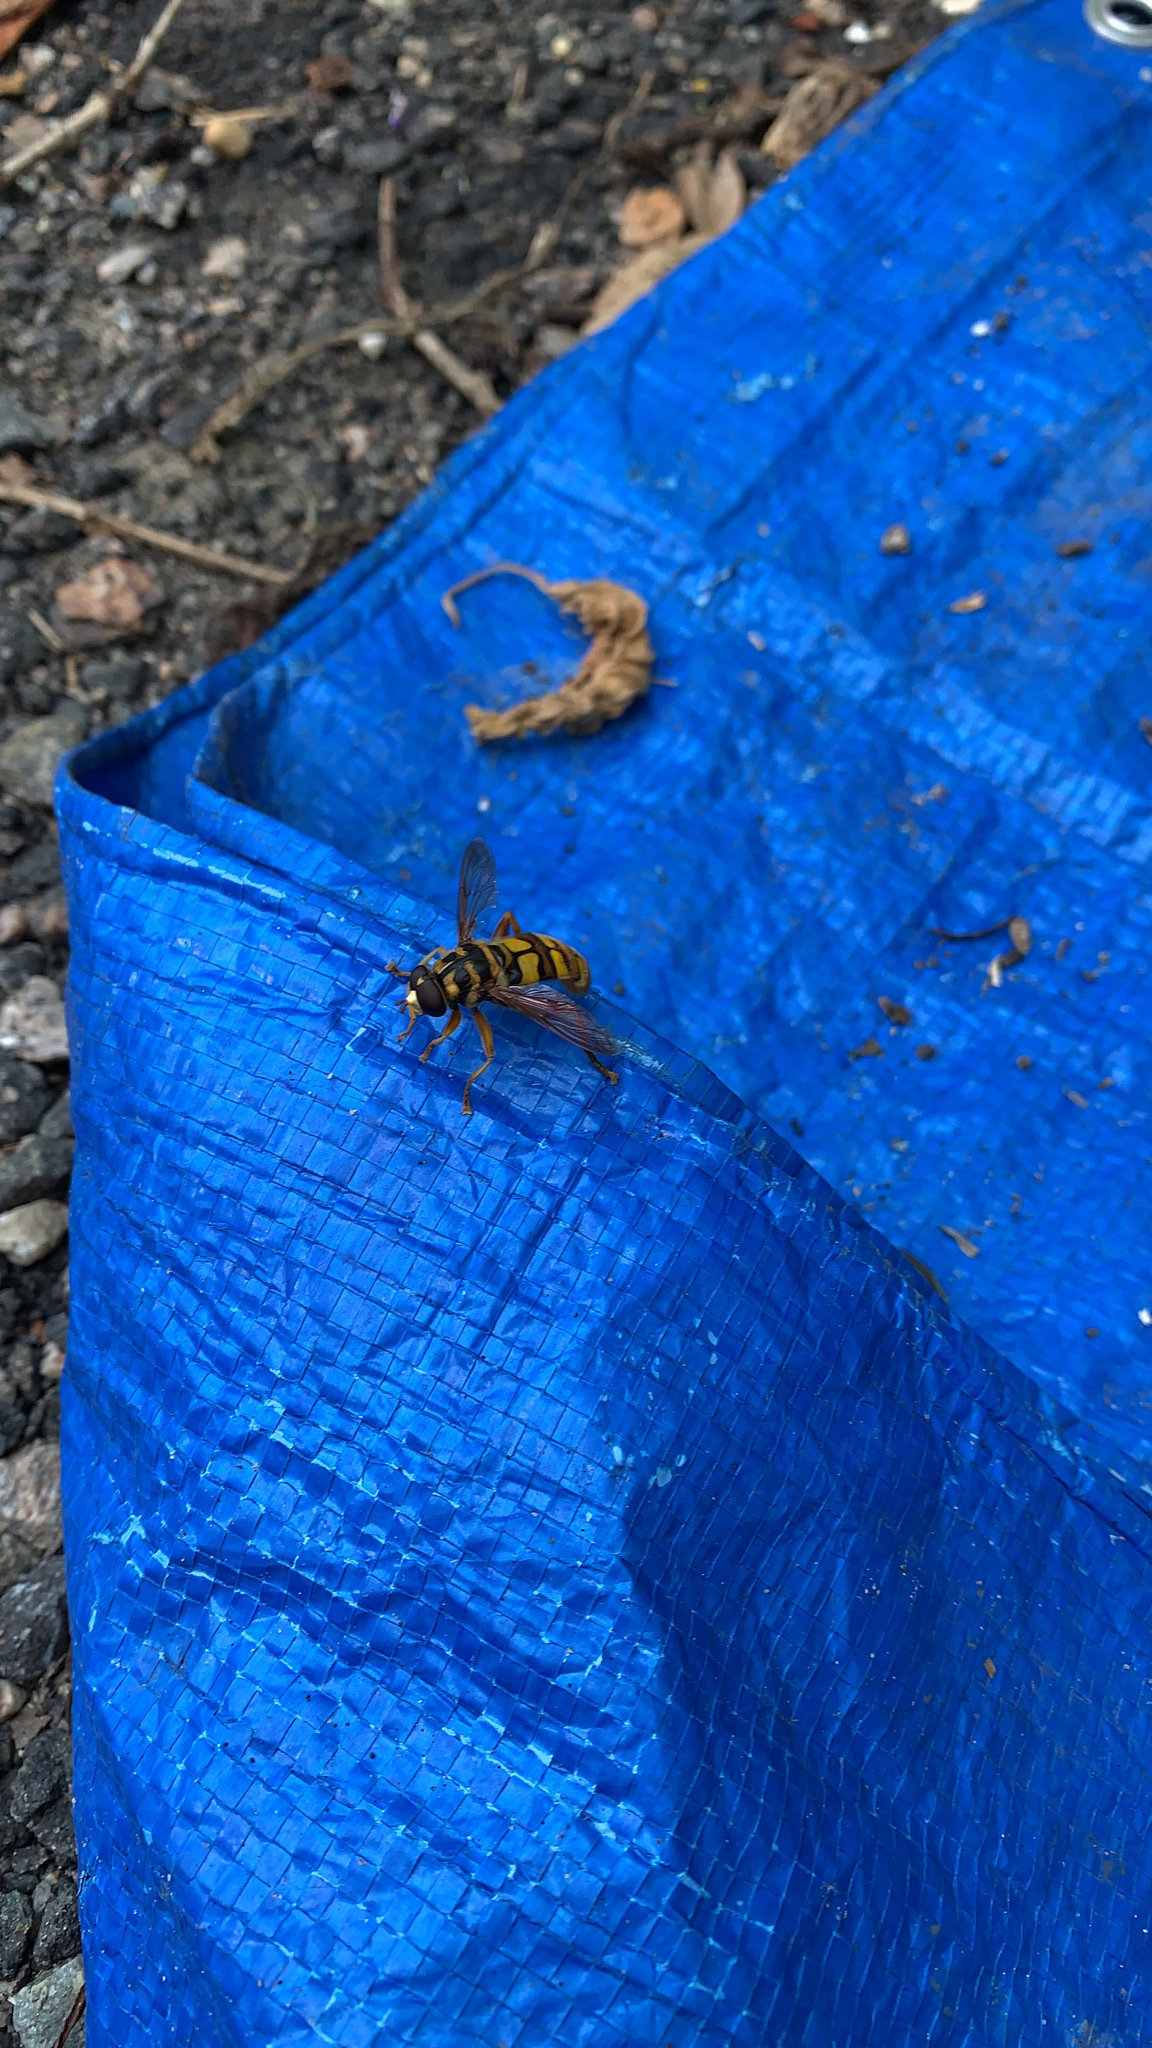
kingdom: Animalia
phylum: Arthropoda
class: Insecta
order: Diptera
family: Syrphidae
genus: Milesia
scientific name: Milesia virginiensis
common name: Virginia giant
